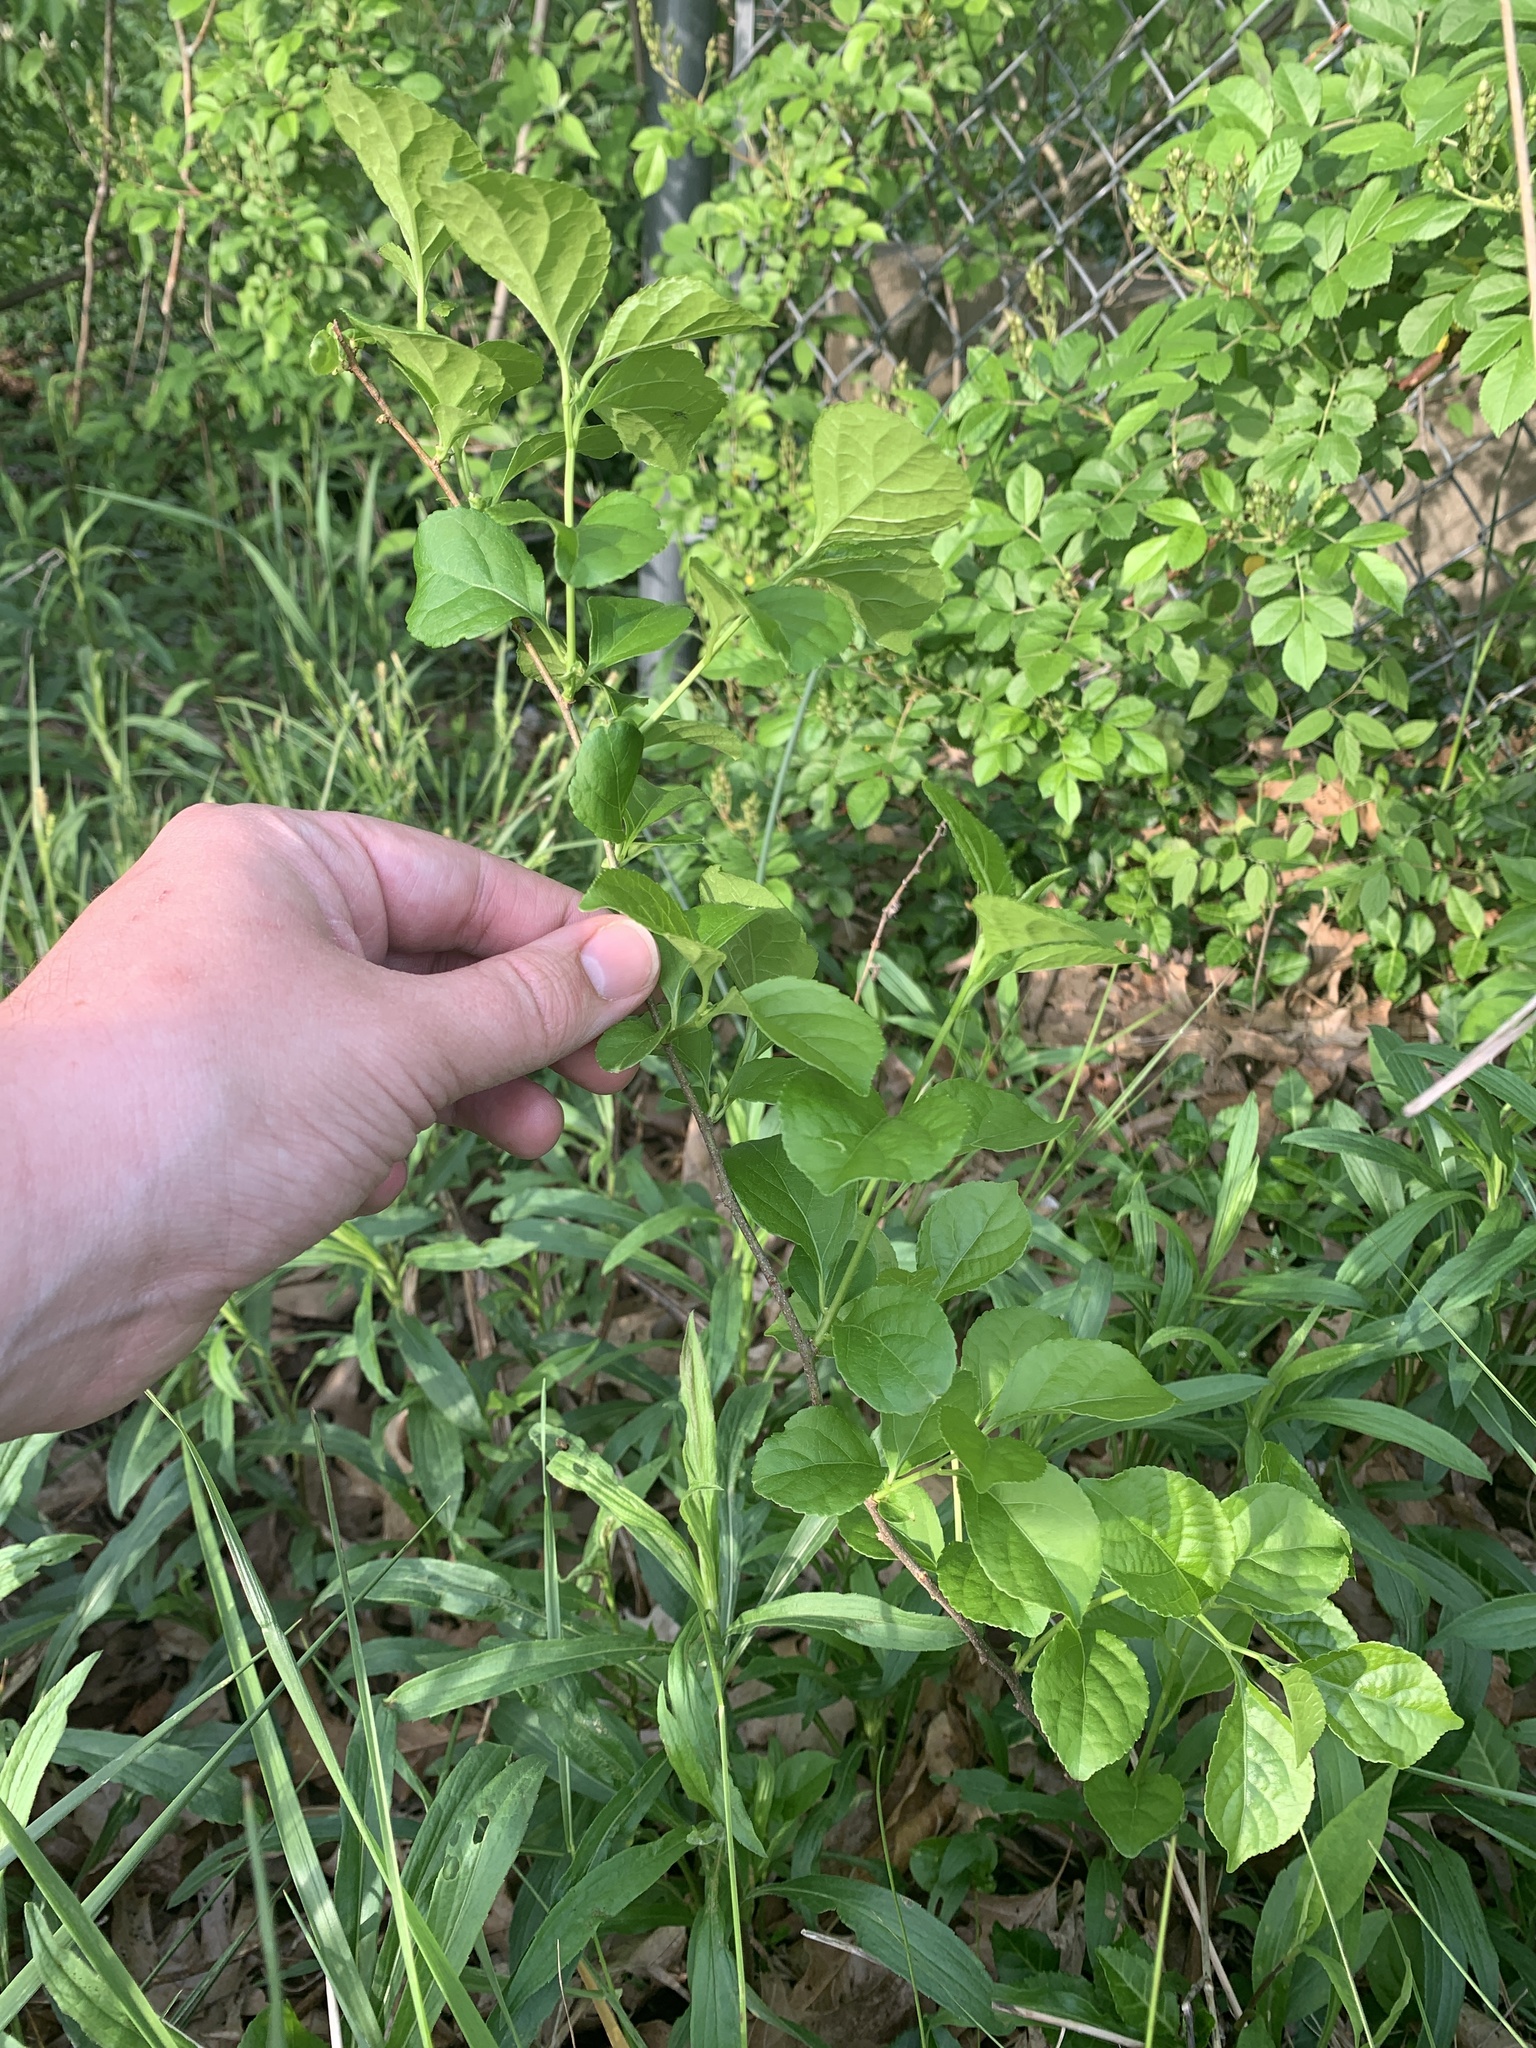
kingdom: Plantae
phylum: Tracheophyta
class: Magnoliopsida
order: Celastrales
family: Celastraceae
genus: Celastrus
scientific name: Celastrus orbiculatus
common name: Oriental bittersweet
